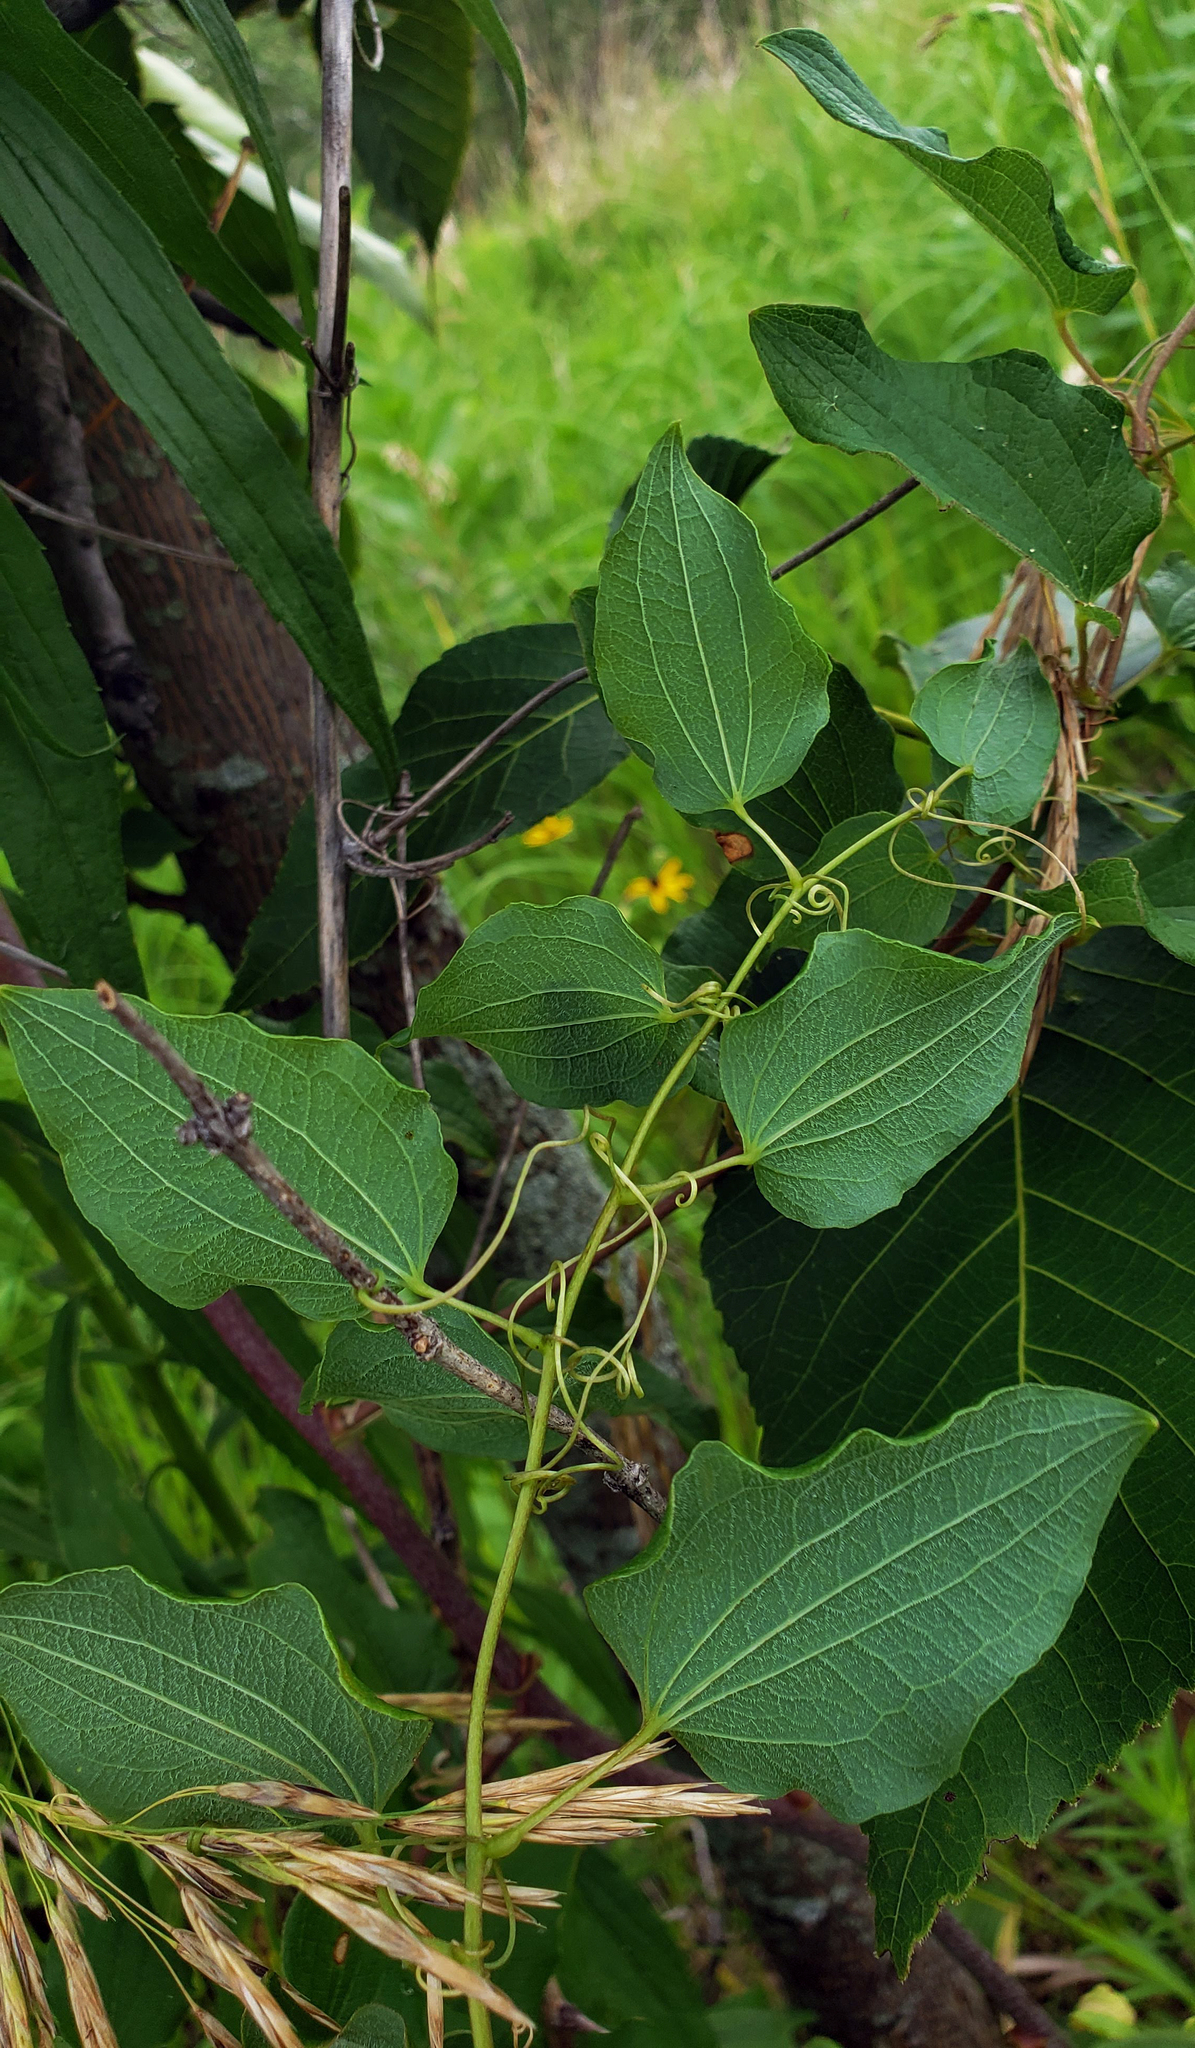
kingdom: Plantae
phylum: Tracheophyta
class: Liliopsida
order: Liliales
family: Smilacaceae
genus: Smilax
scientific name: Smilax lasioneura
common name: Blue ridge carrionflower
